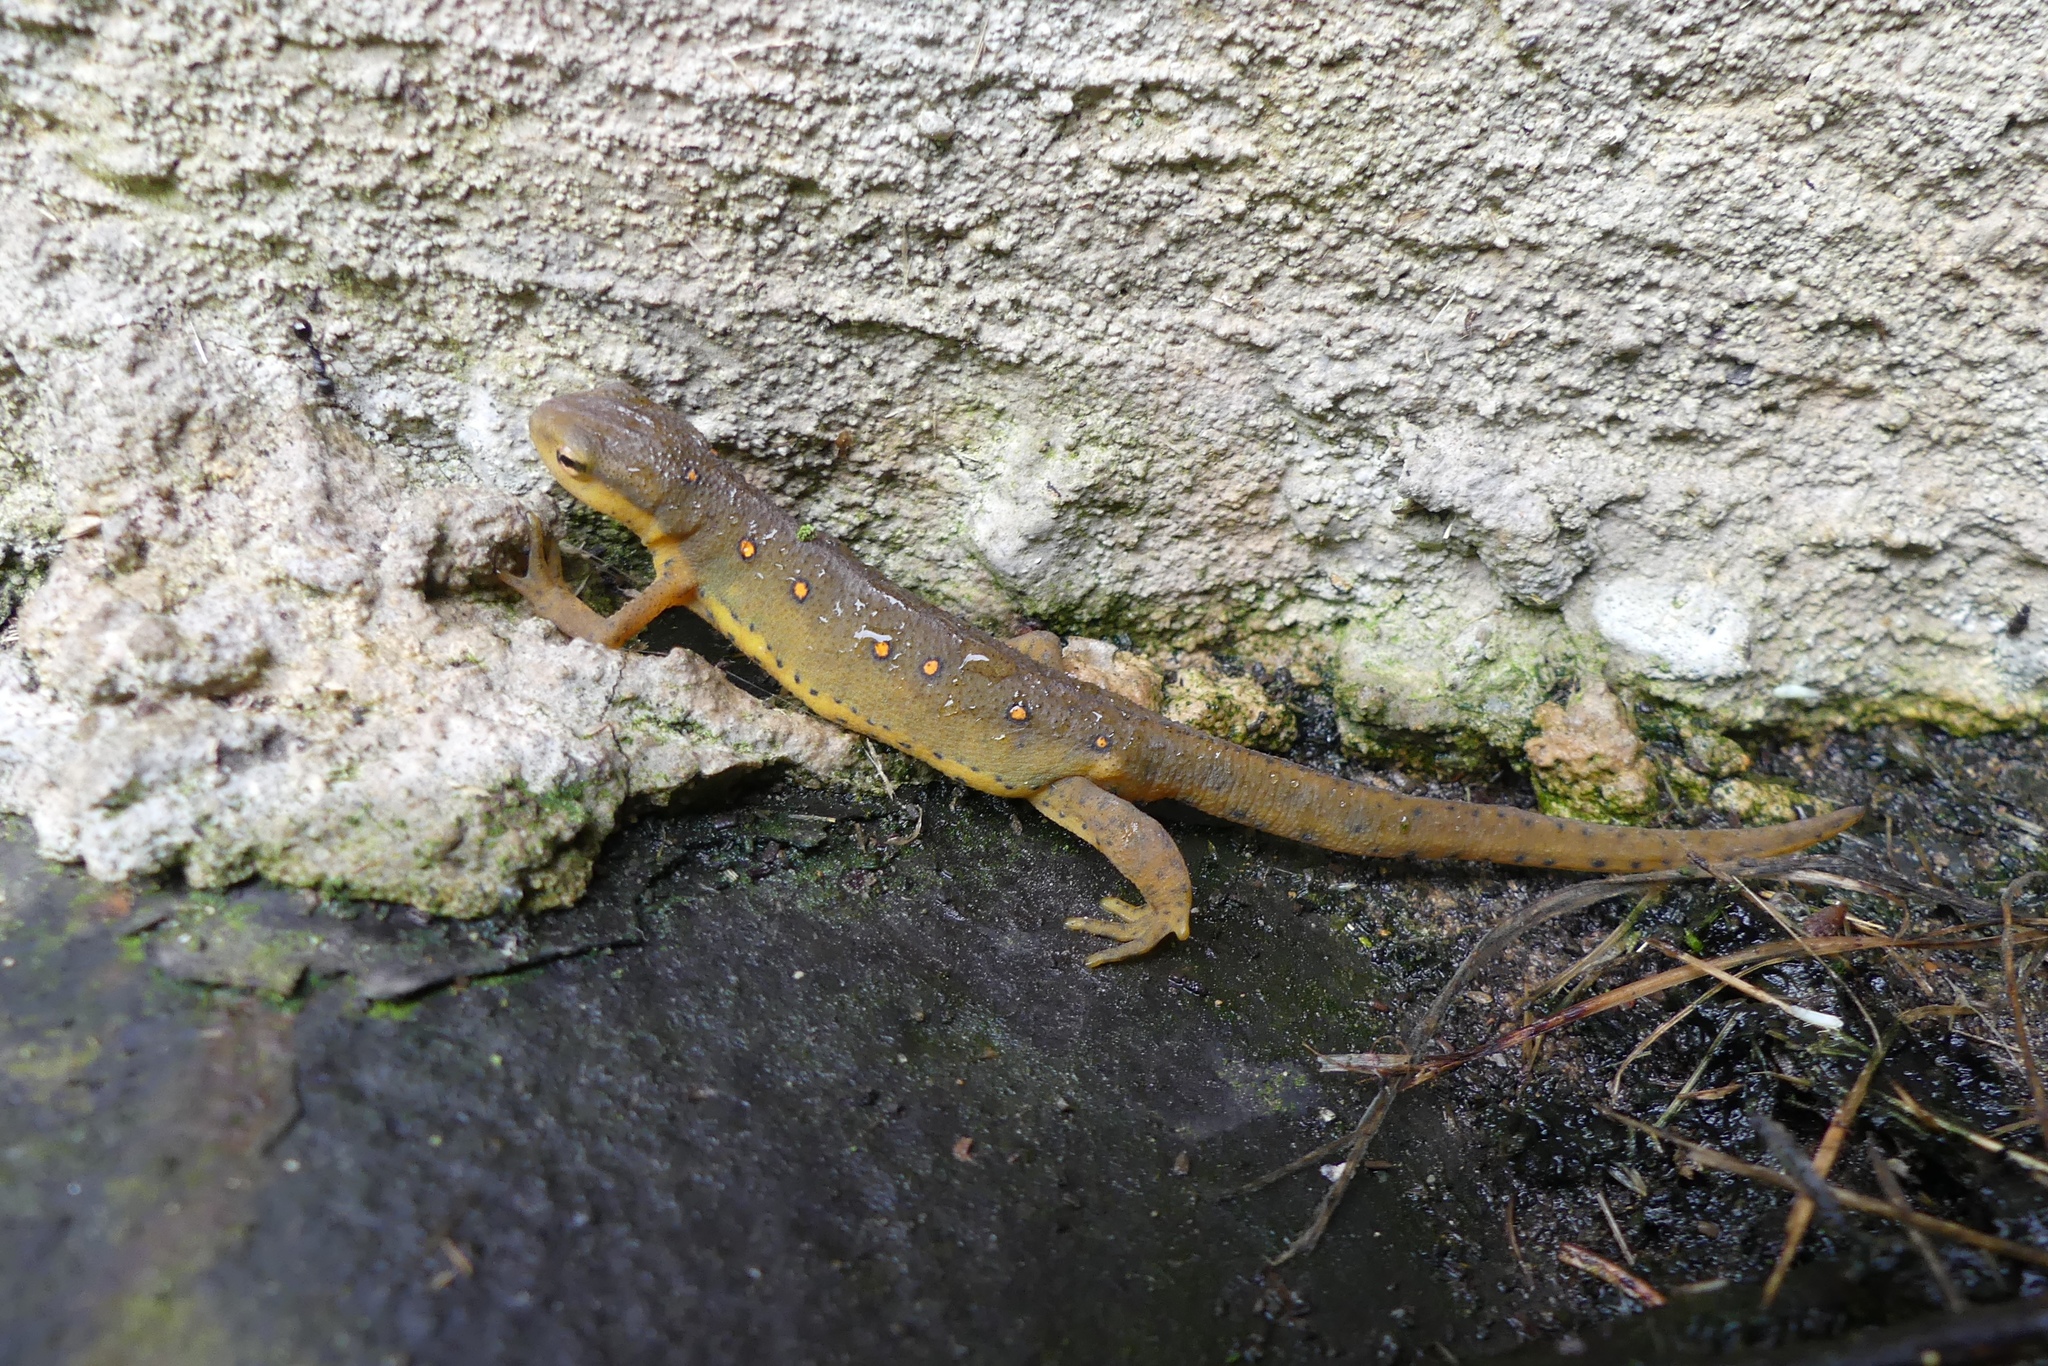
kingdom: Animalia
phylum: Chordata
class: Amphibia
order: Caudata
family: Salamandridae
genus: Notophthalmus
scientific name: Notophthalmus viridescens
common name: Eastern newt
